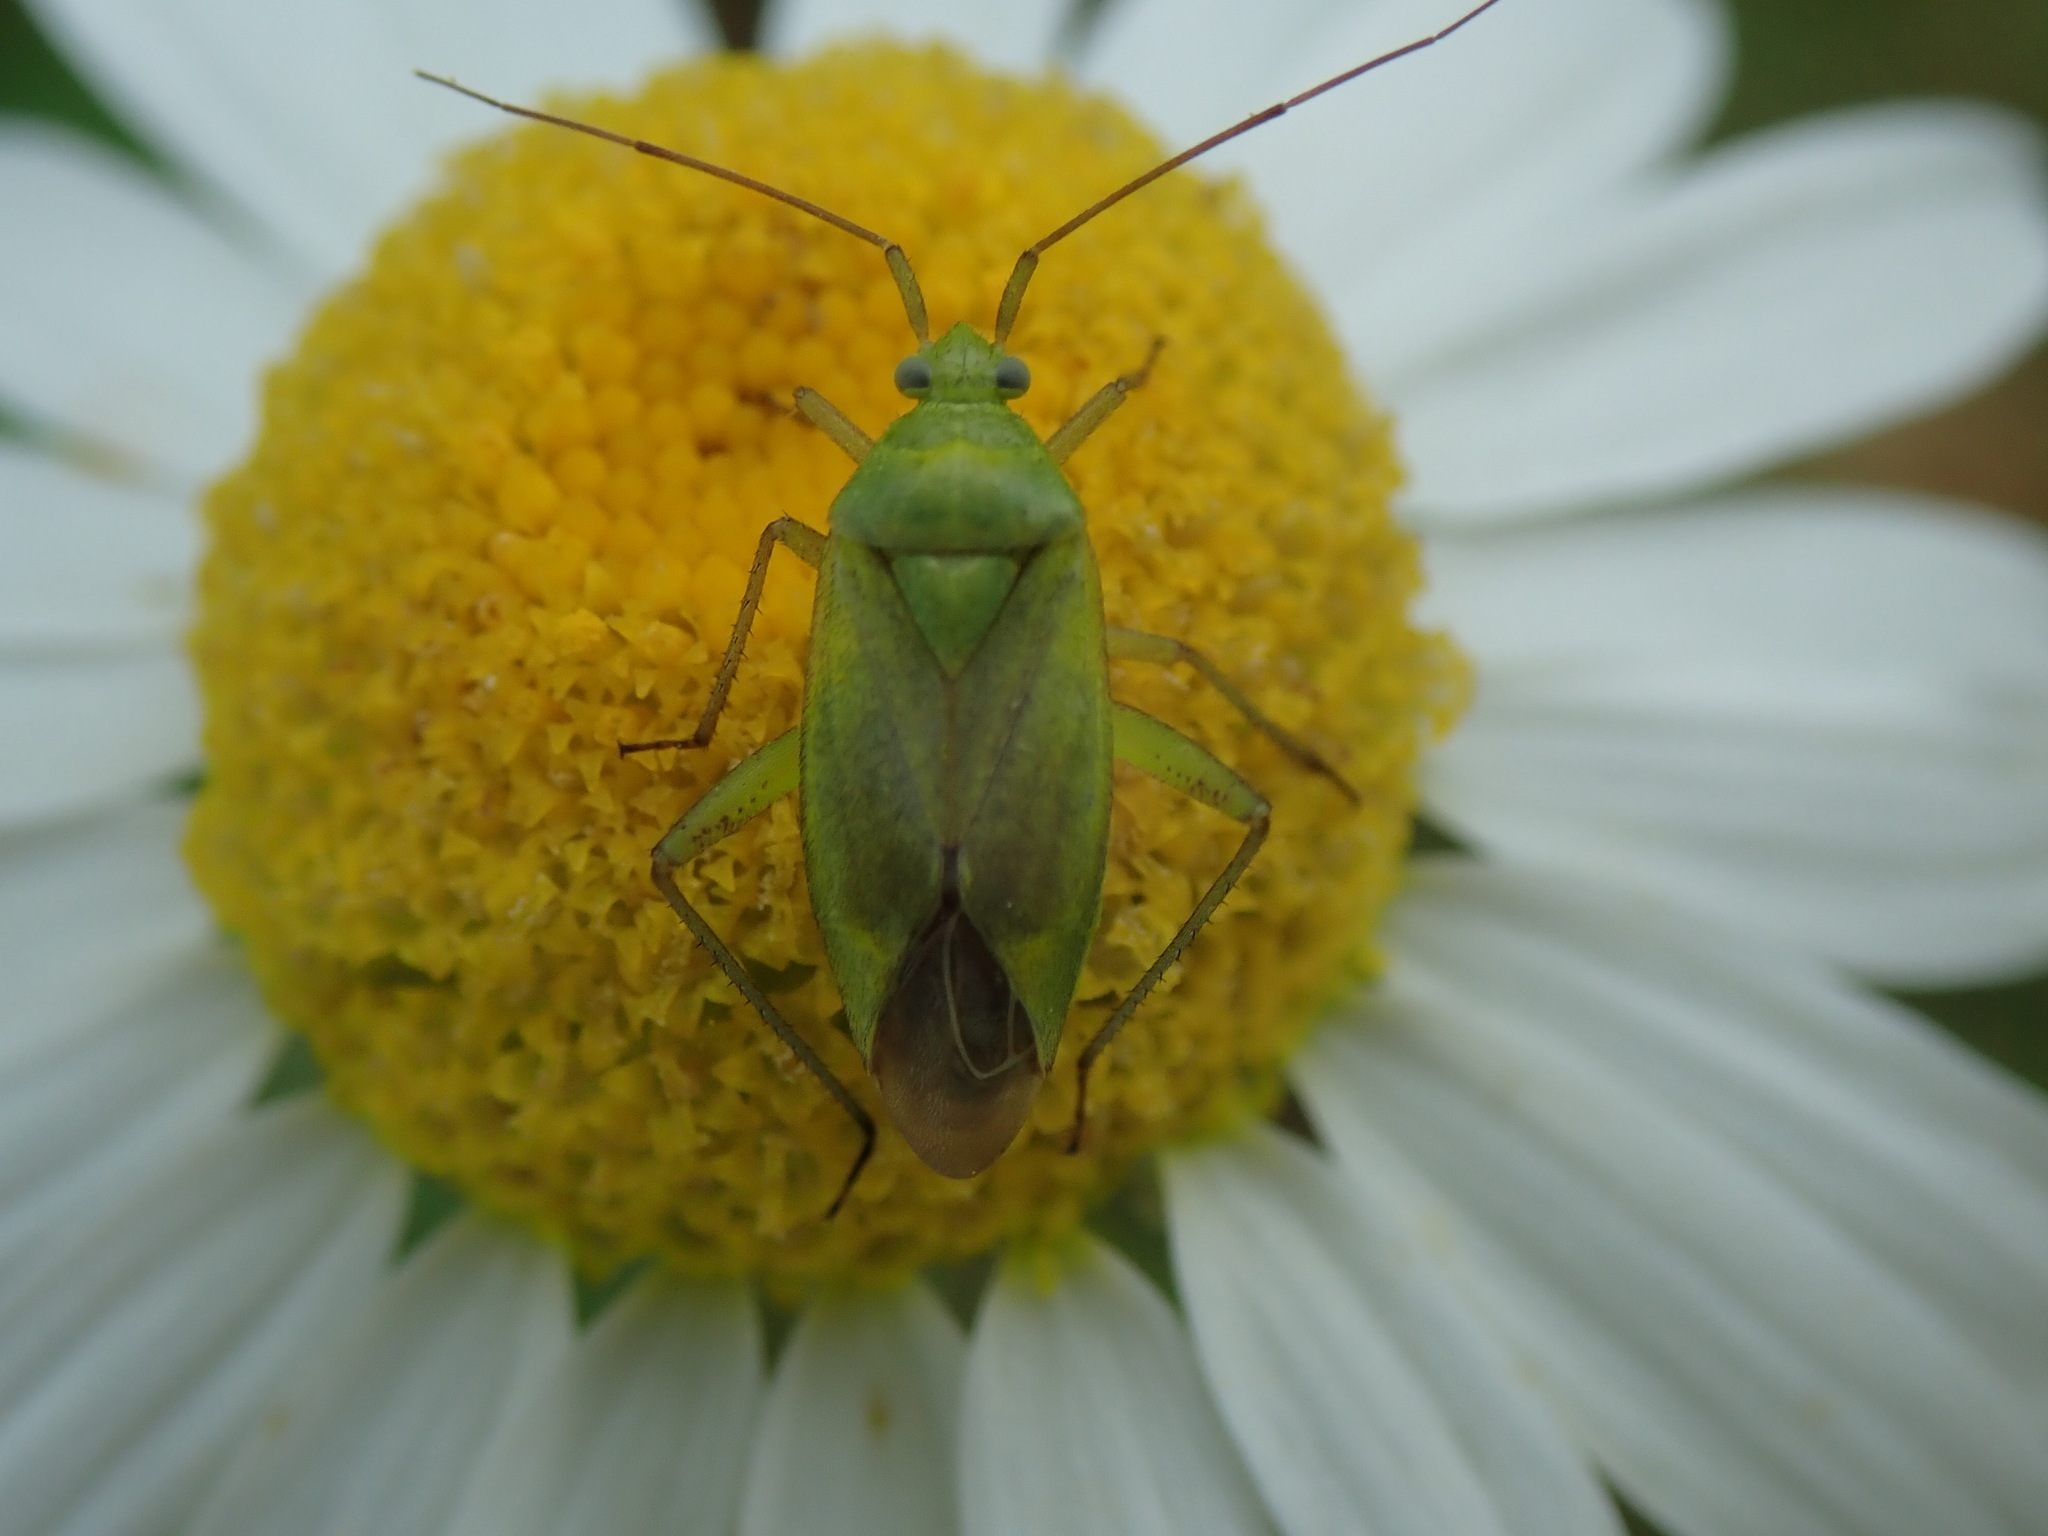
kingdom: Animalia
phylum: Arthropoda
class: Insecta
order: Hemiptera
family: Miridae
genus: Closterotomus
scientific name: Closterotomus norvegicus
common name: Plant bug
